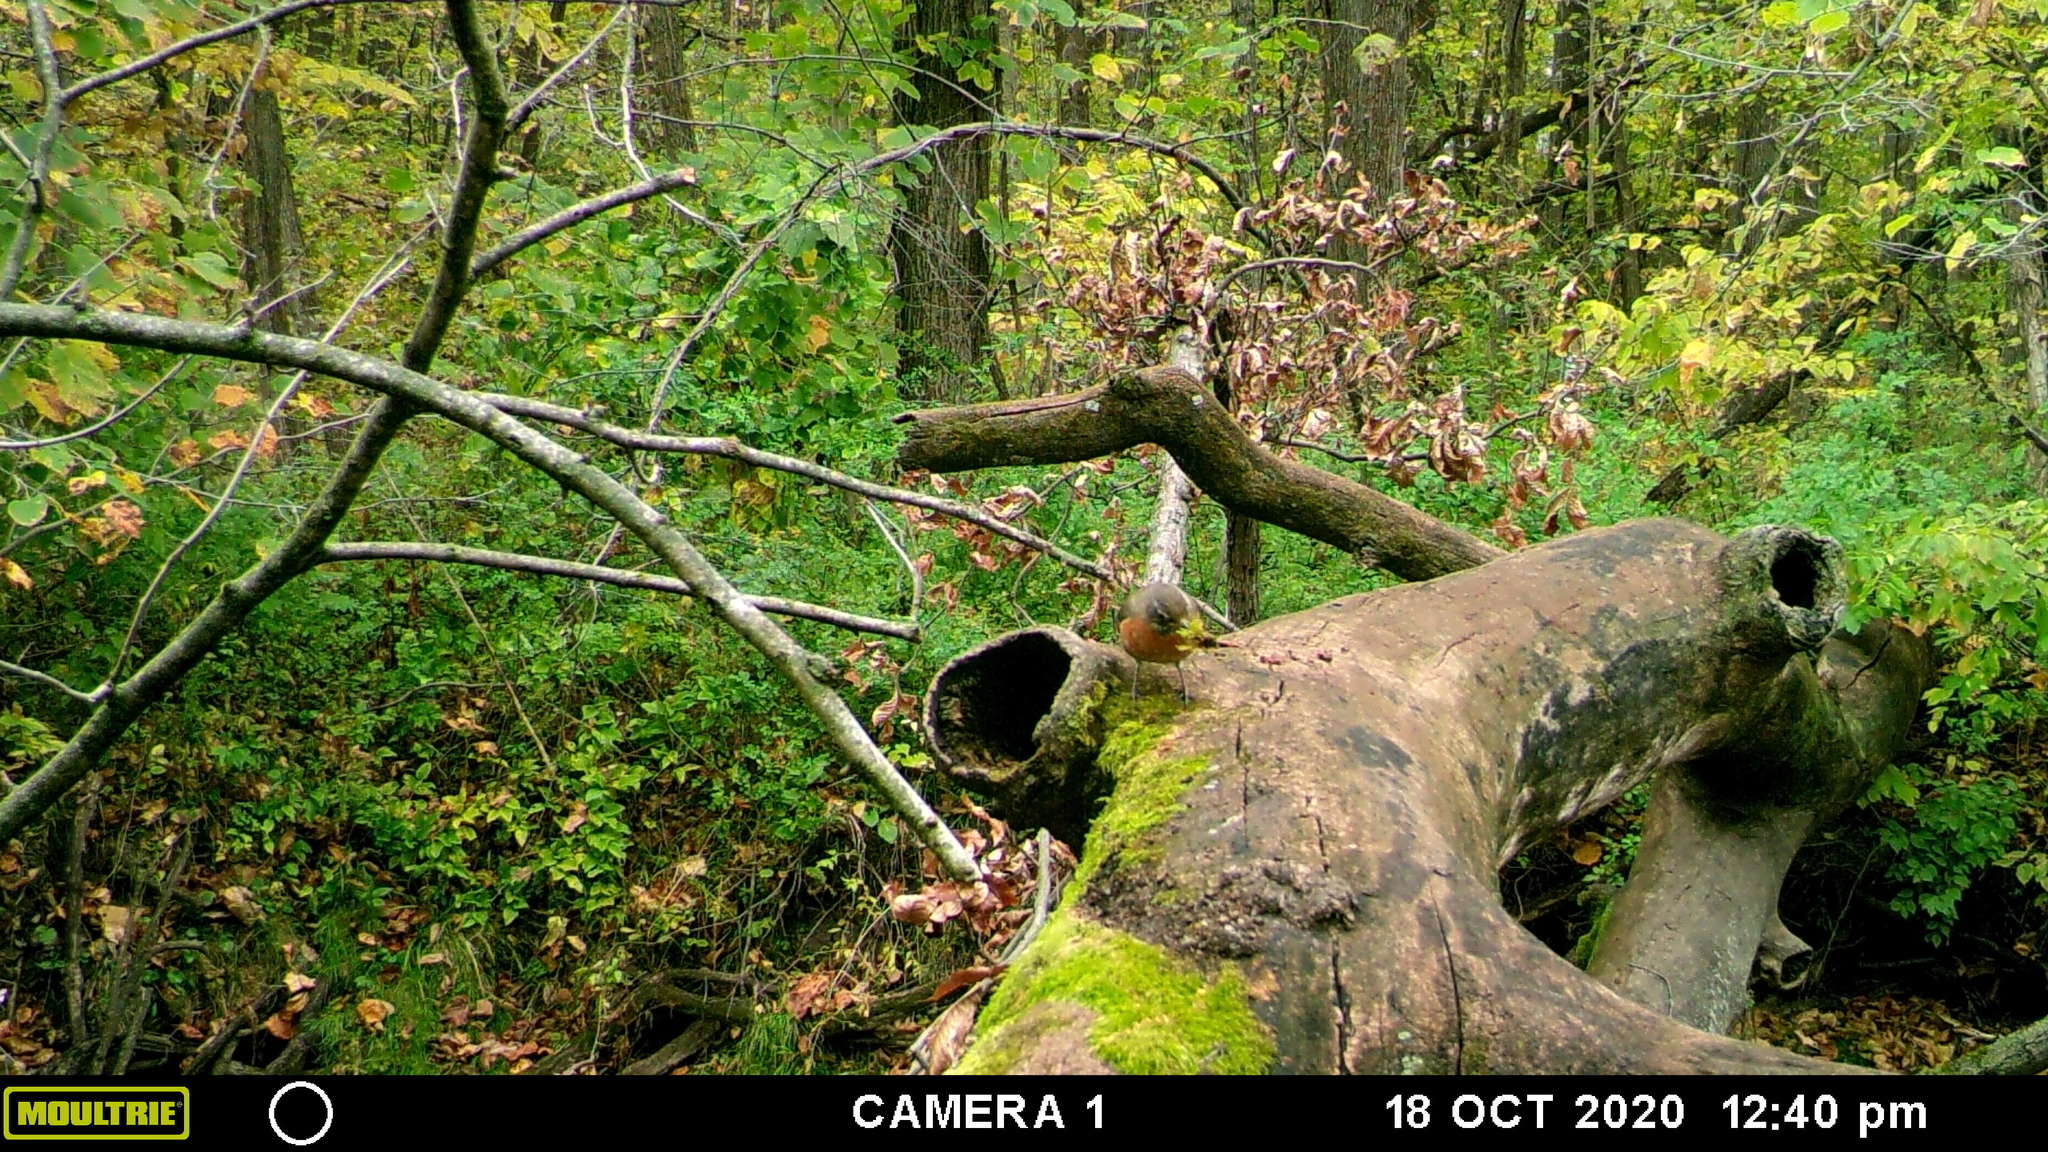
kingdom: Animalia
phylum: Chordata
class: Aves
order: Passeriformes
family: Turdidae
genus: Turdus
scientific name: Turdus migratorius
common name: American robin
